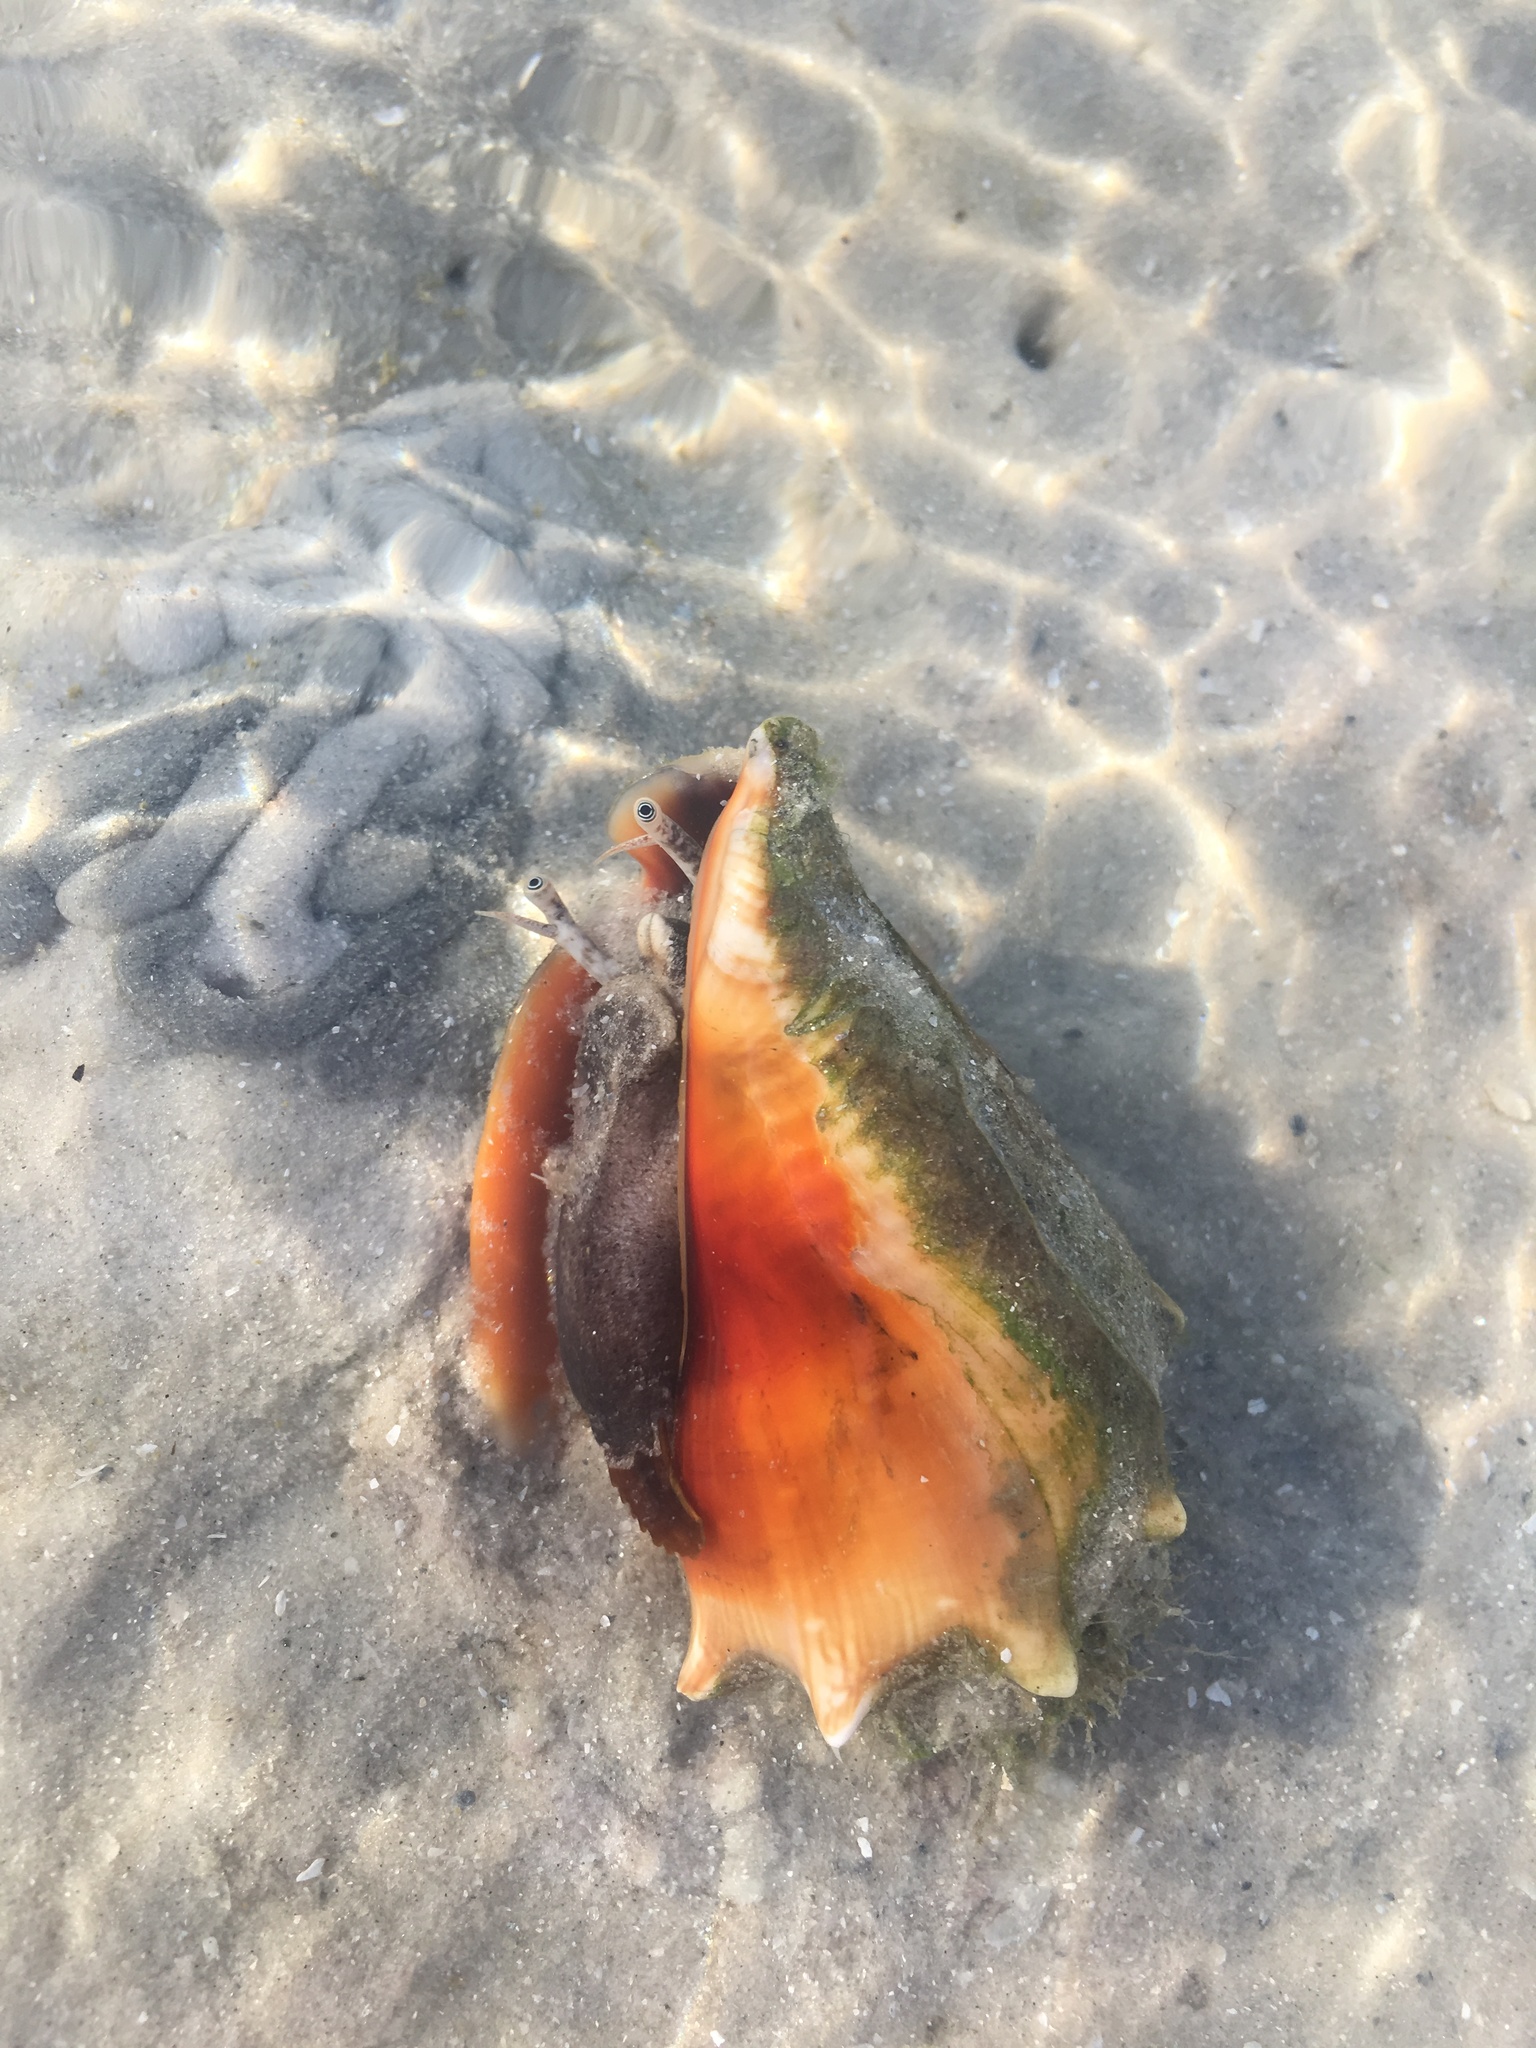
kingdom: Animalia
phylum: Mollusca
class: Gastropoda
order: Littorinimorpha
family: Strombidae
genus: Strombus
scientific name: Strombus alatus
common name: Florida fighting conch
